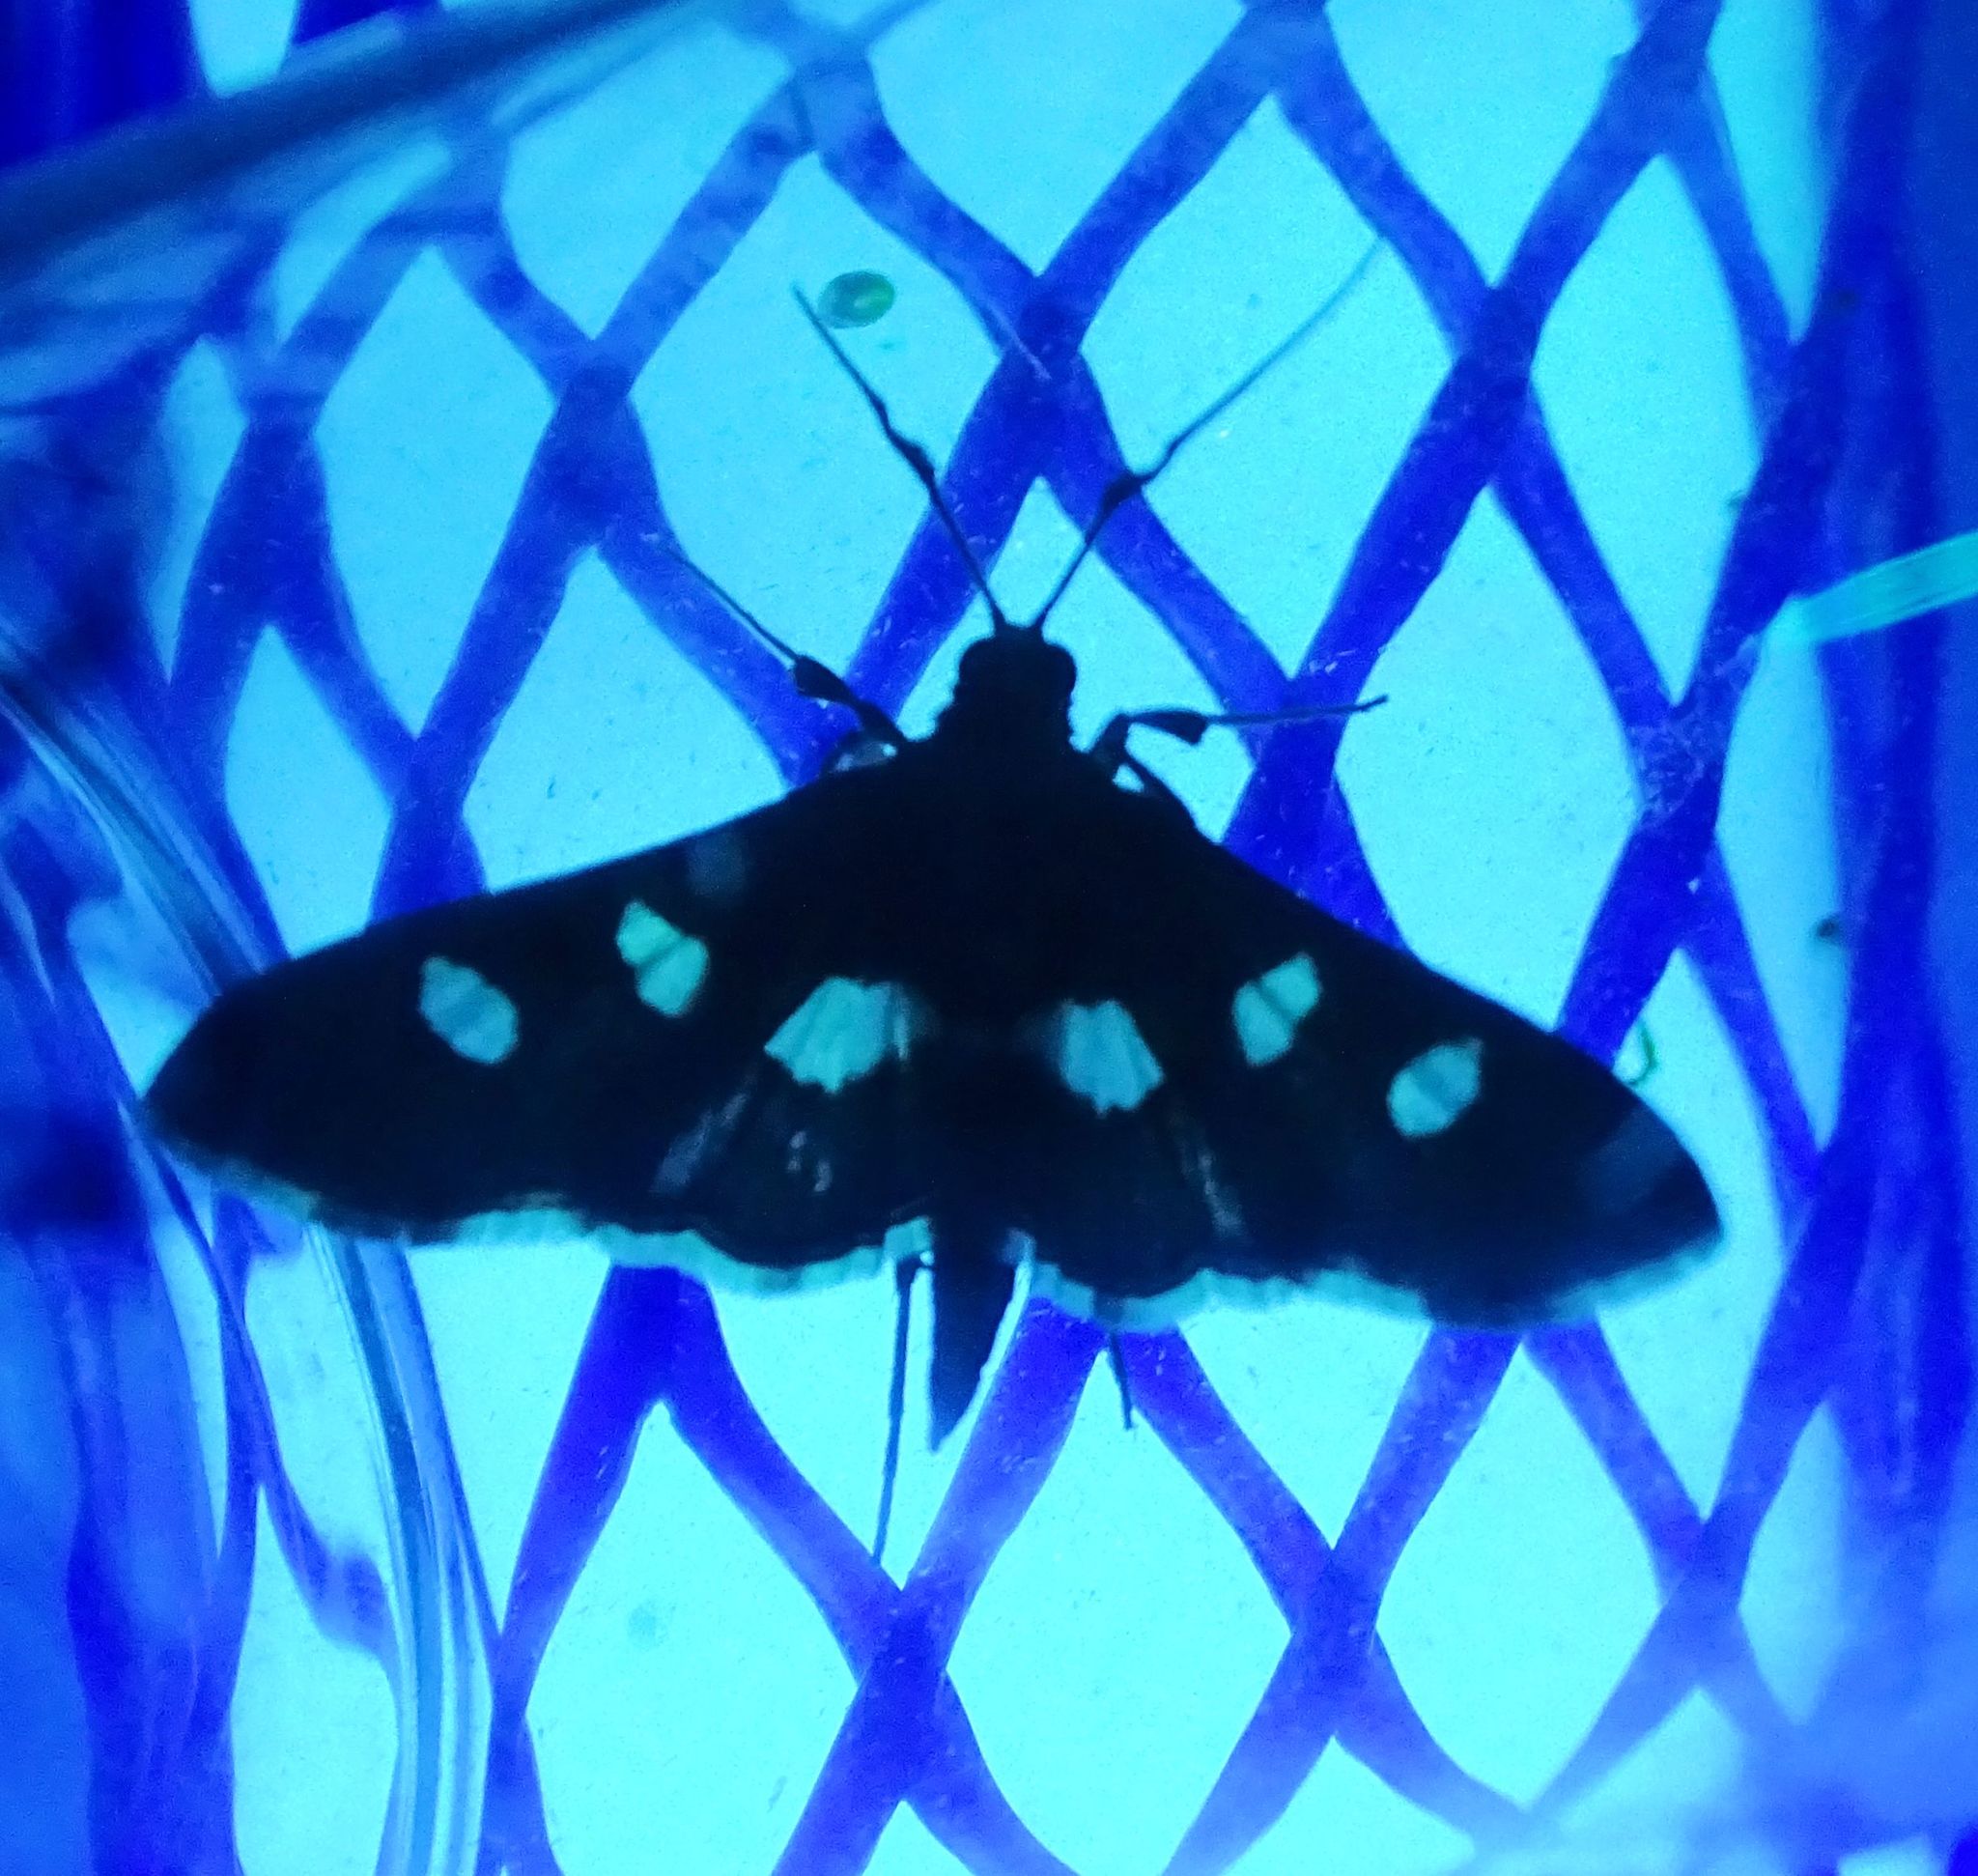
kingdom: Animalia
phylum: Arthropoda
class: Insecta
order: Lepidoptera
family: Crambidae
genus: Desmia
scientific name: Desmia
